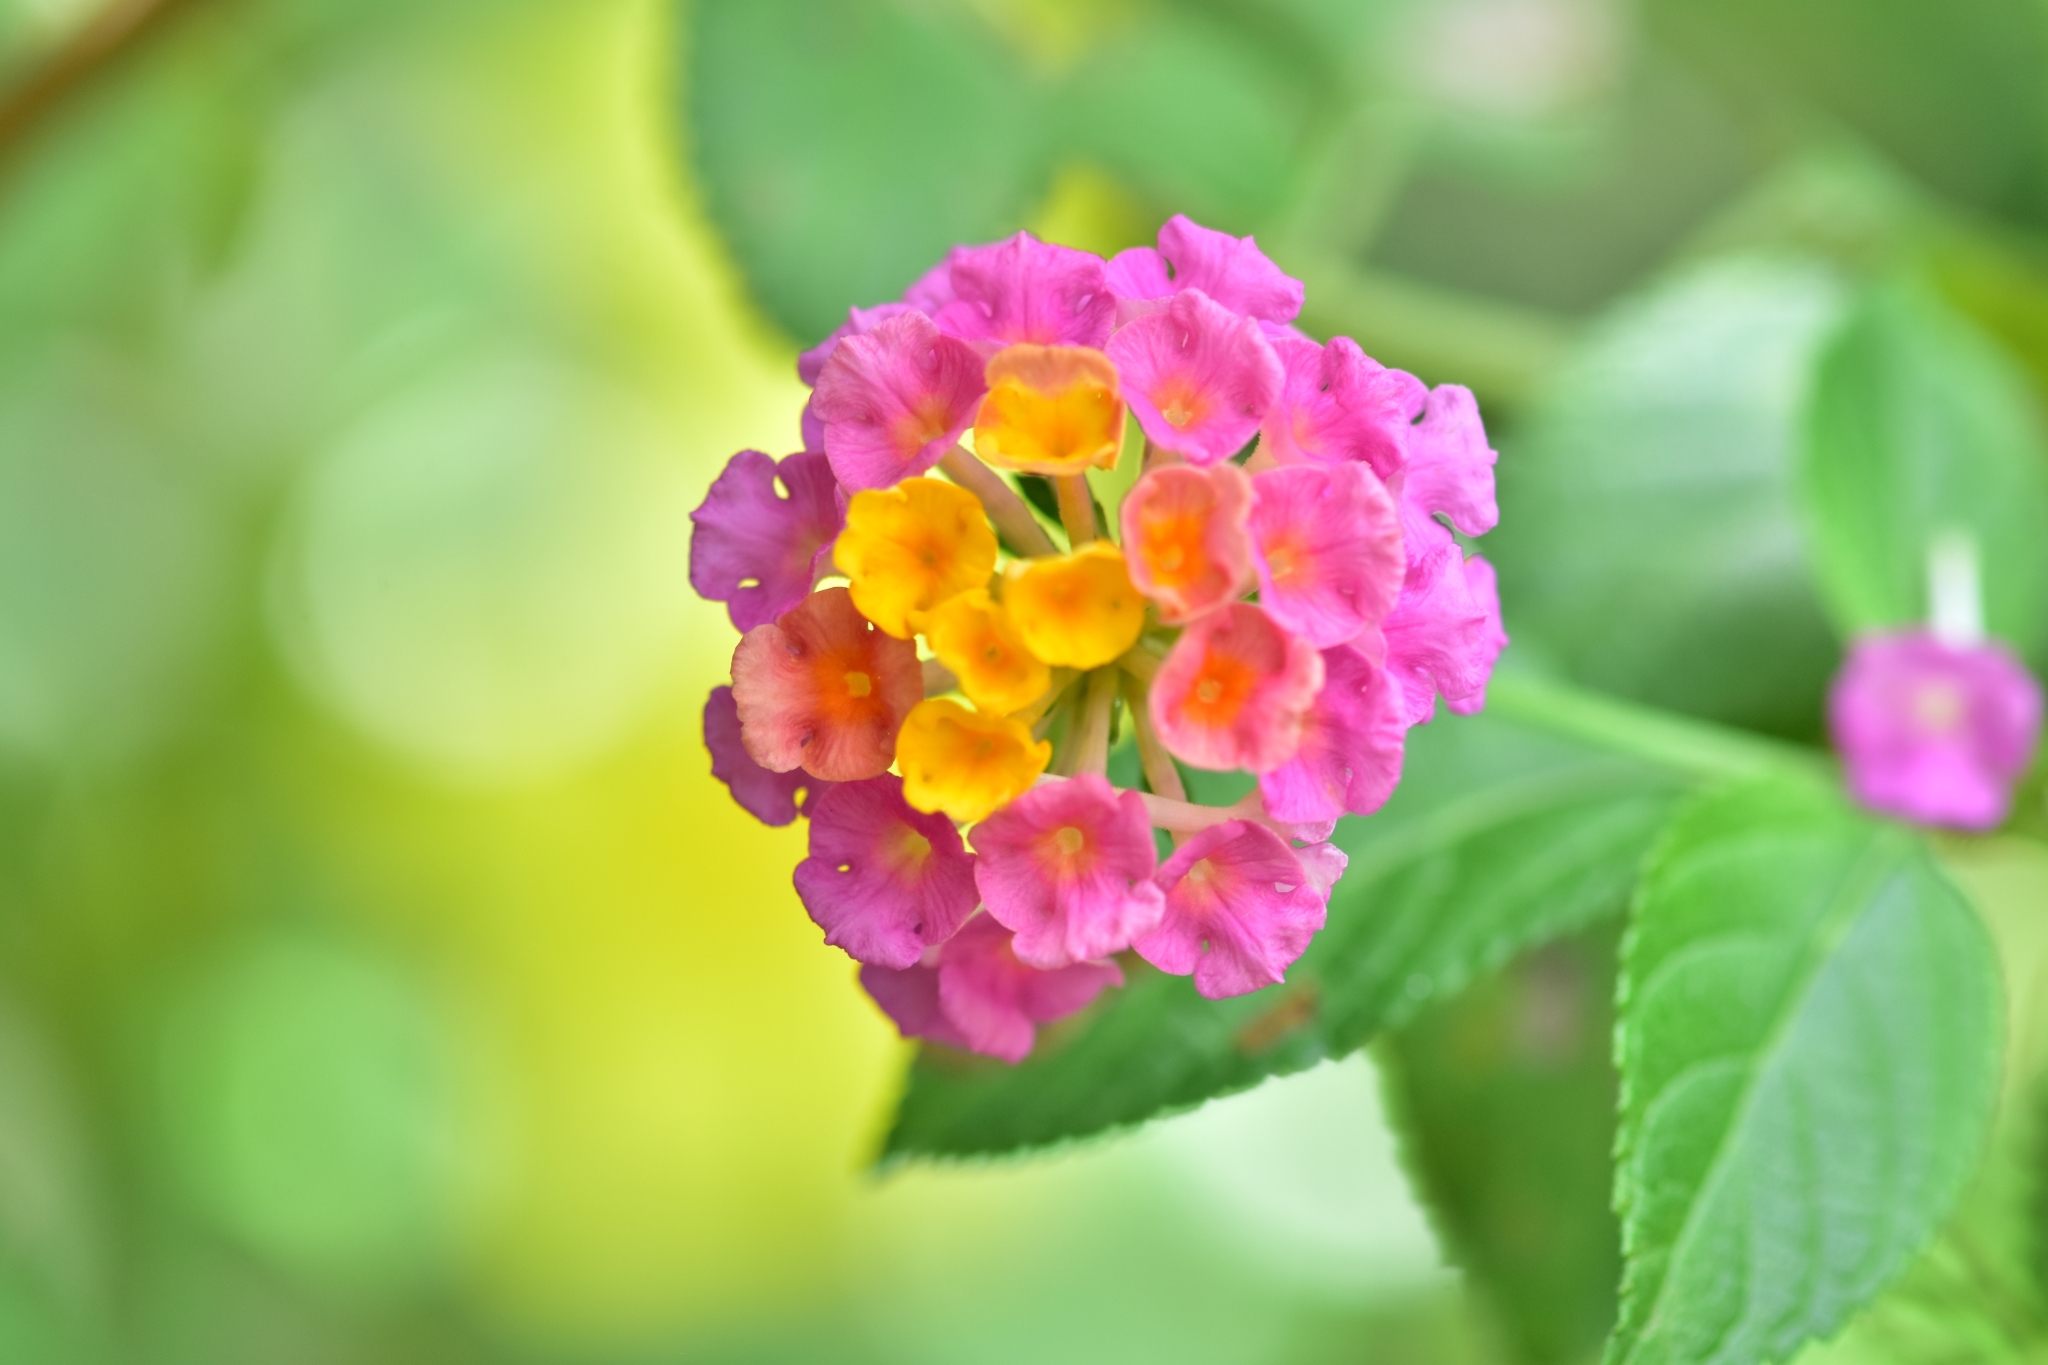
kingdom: Plantae
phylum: Tracheophyta
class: Magnoliopsida
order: Lamiales
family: Verbenaceae
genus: Lantana
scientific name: Lantana camara
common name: Lantana
